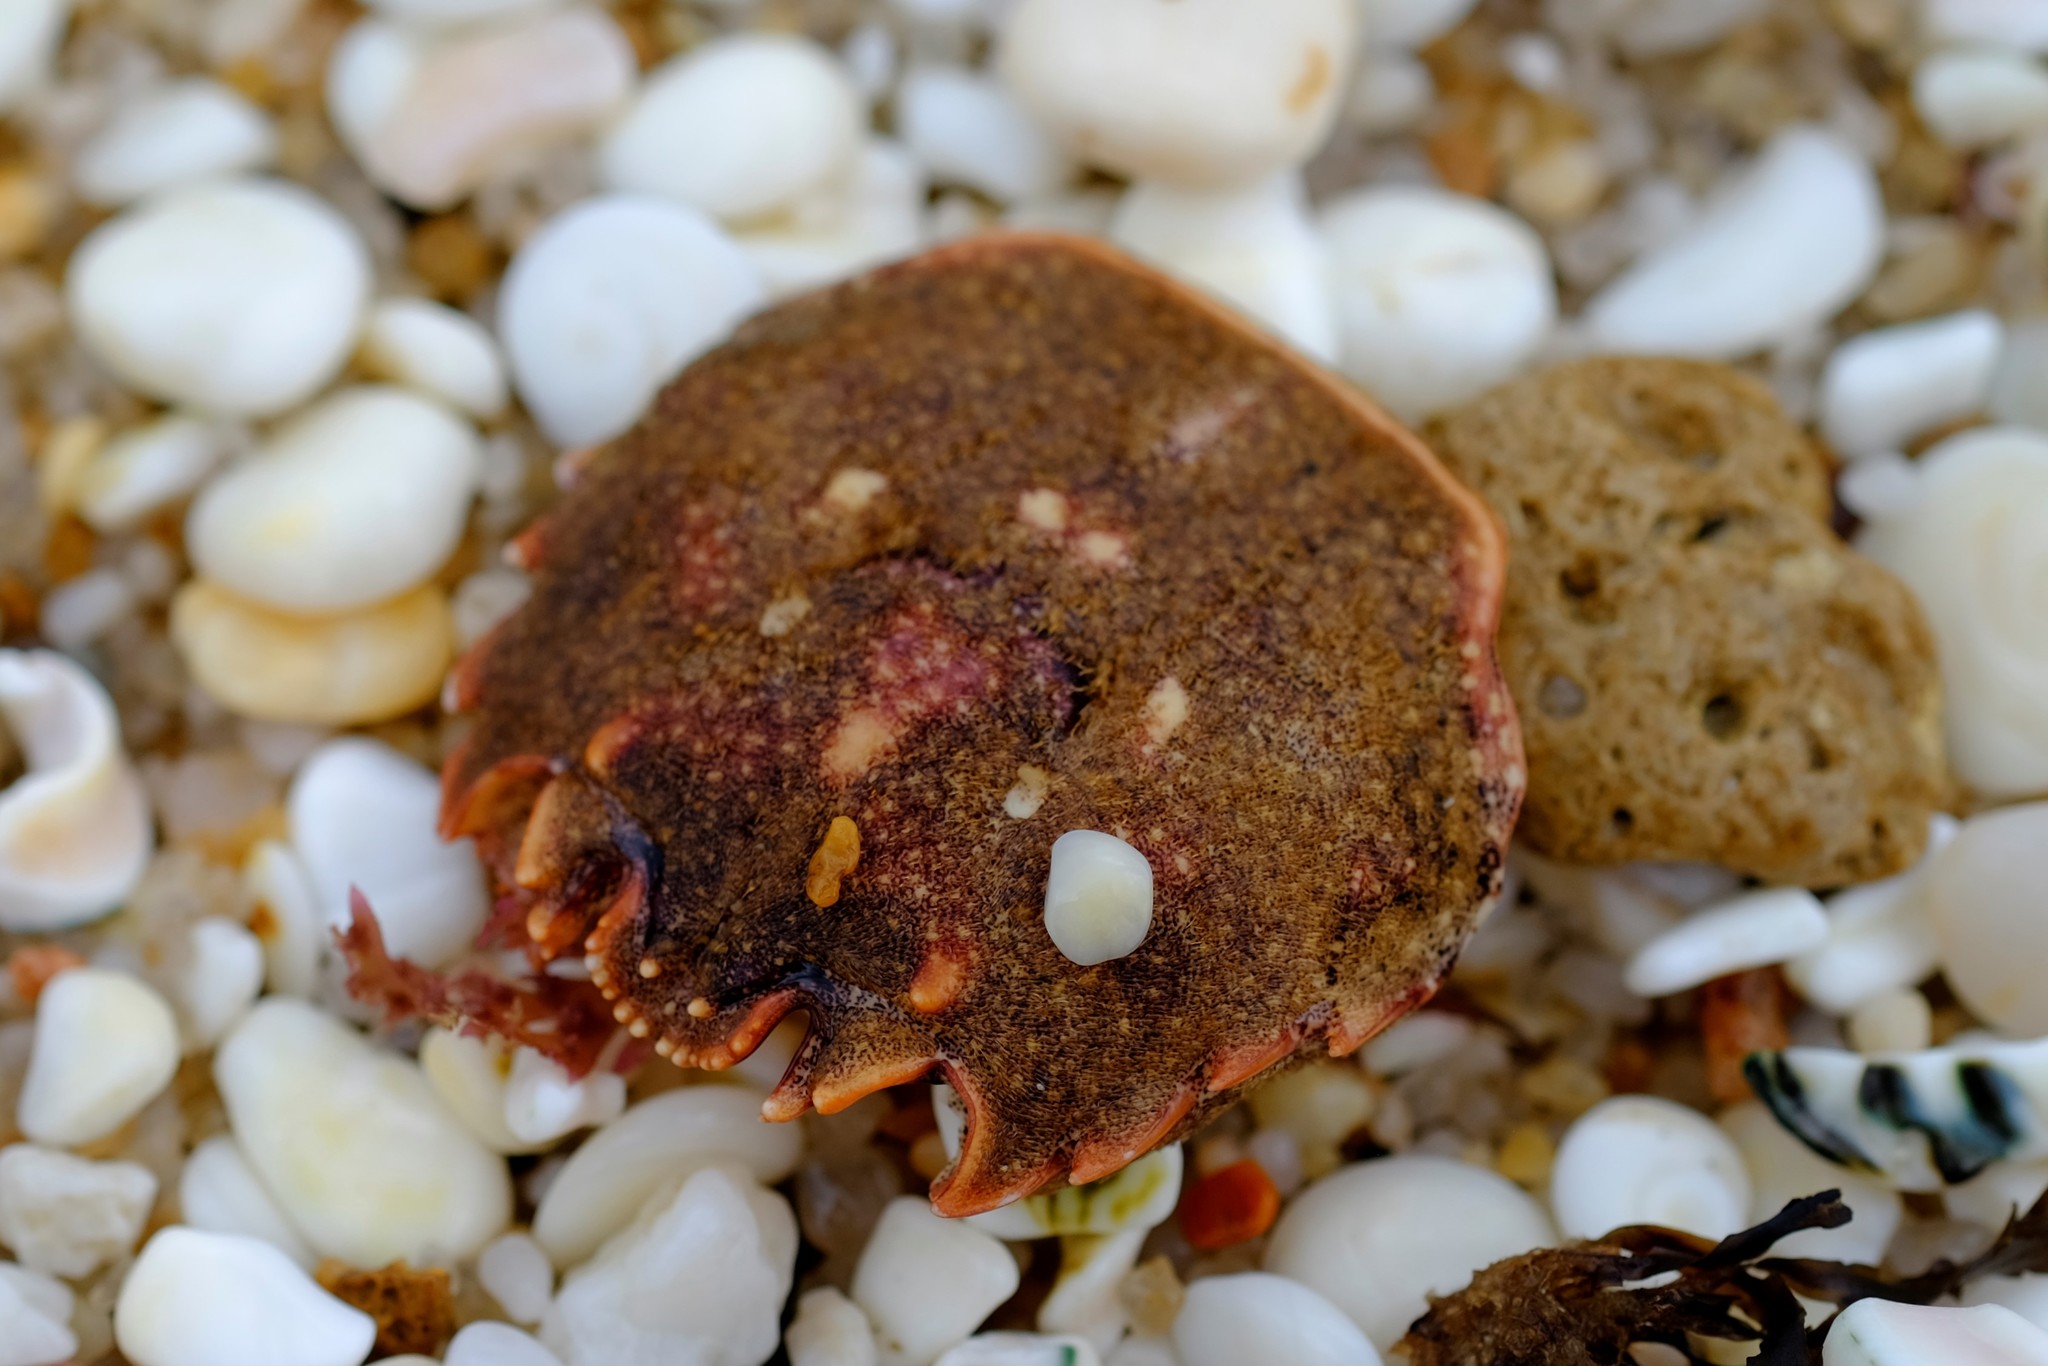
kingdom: Animalia
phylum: Arthropoda
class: Malacostraca
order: Decapoda
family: Plagusiidae
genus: Guinusia
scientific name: Guinusia chabrus
